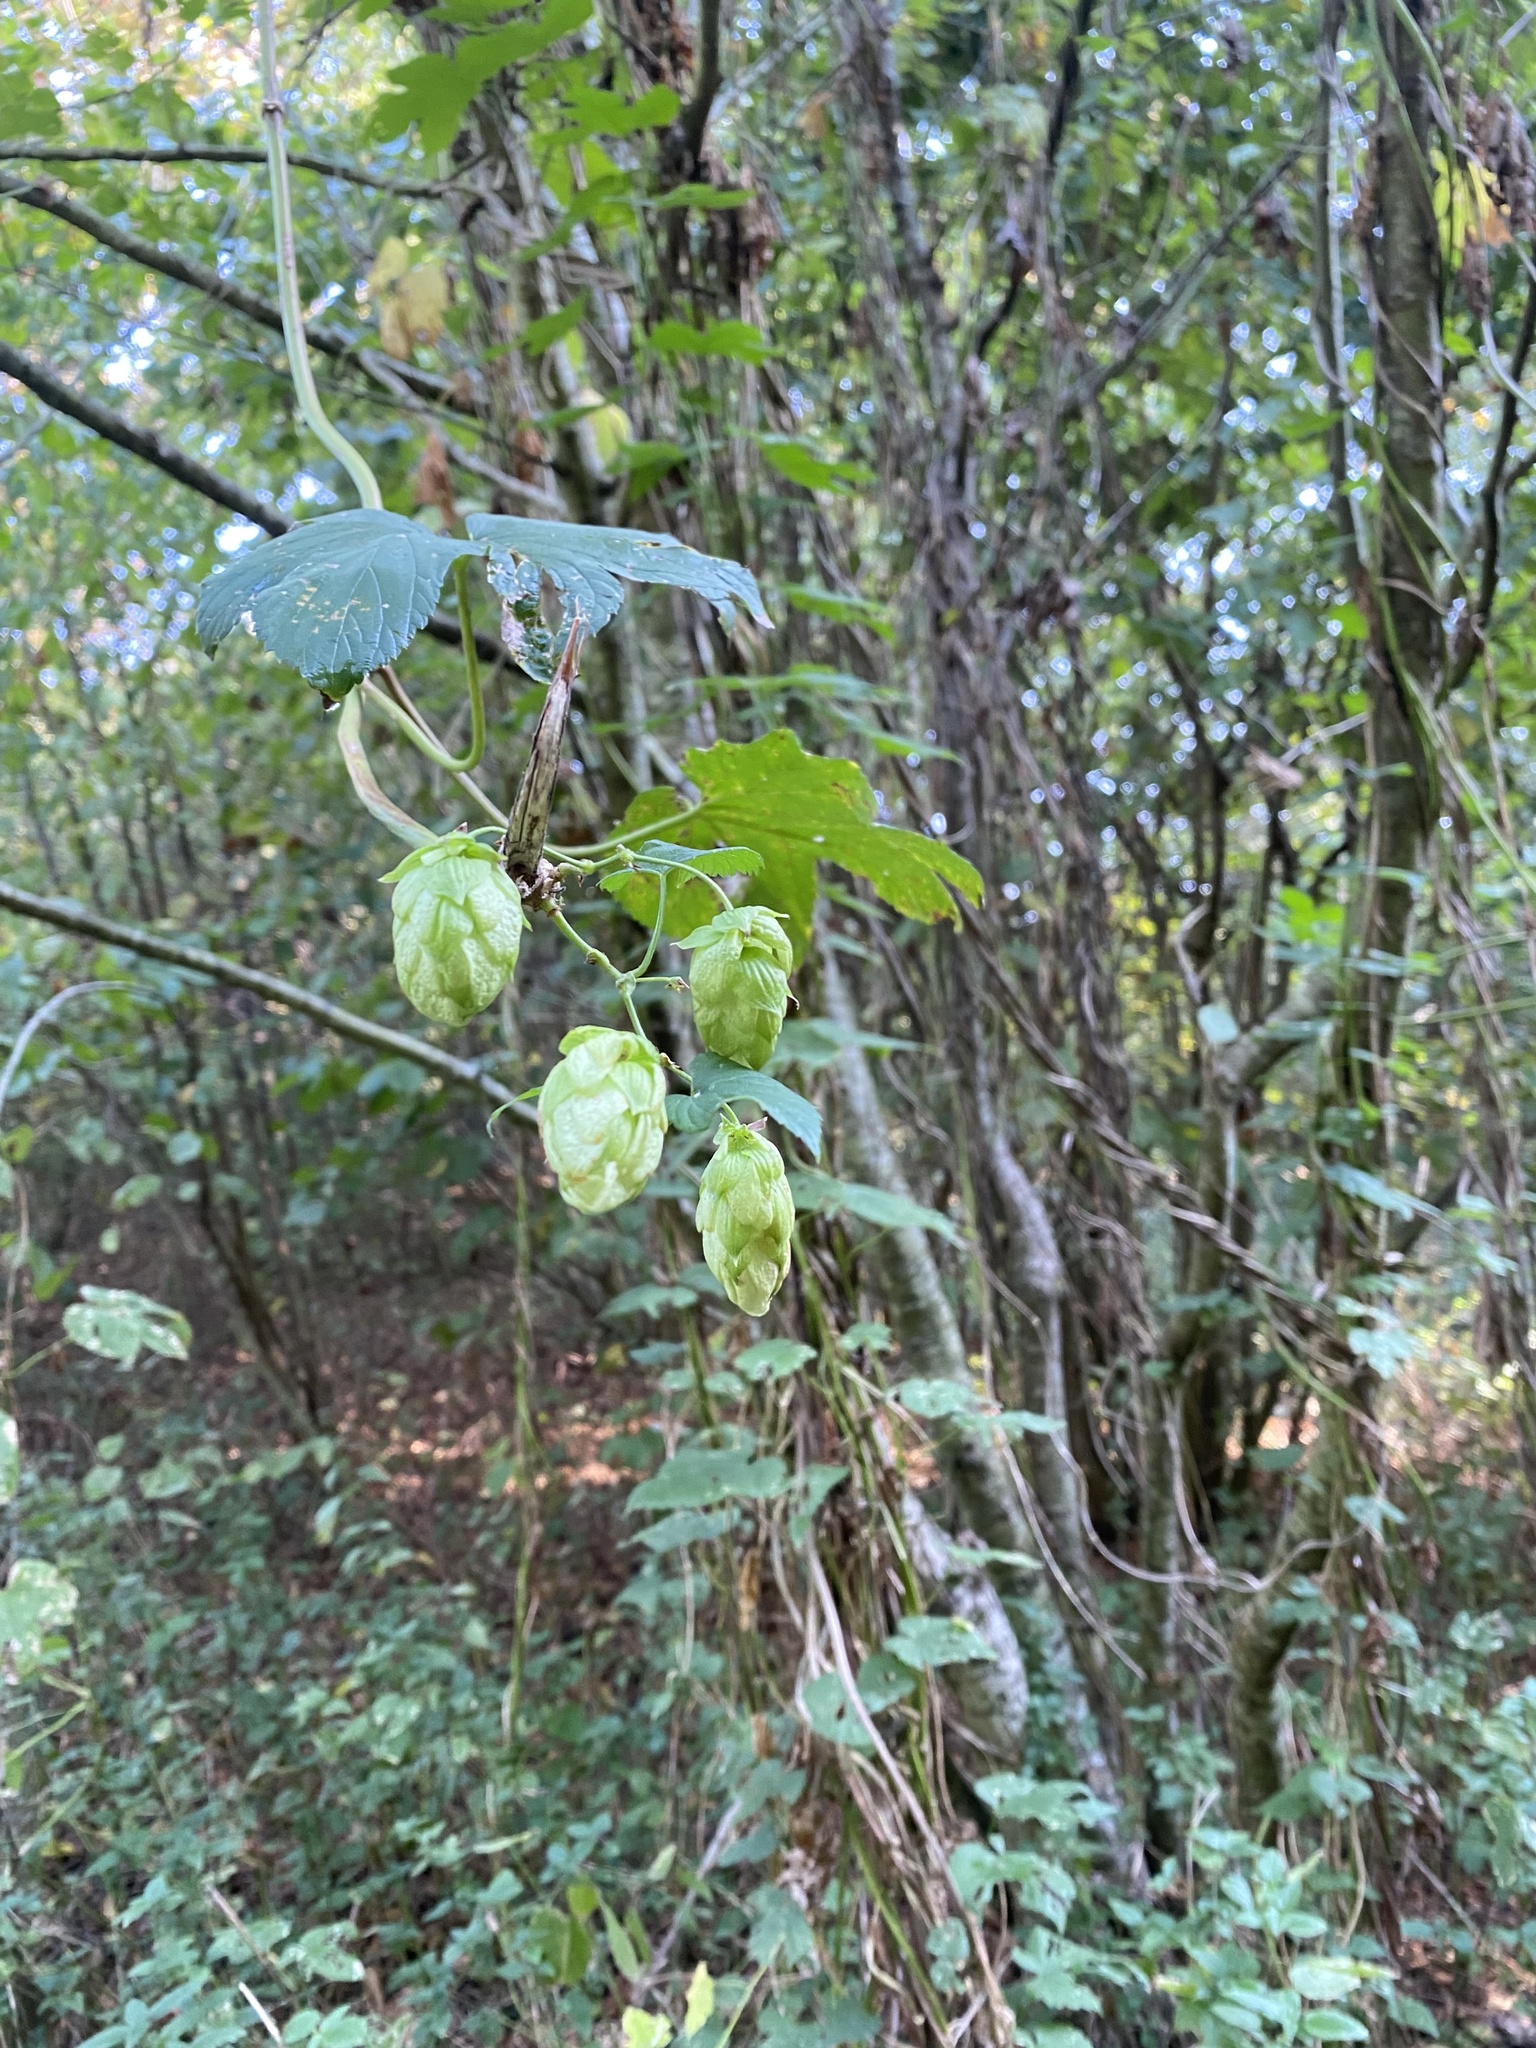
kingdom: Plantae
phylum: Tracheophyta
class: Magnoliopsida
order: Rosales
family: Cannabaceae
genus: Humulus
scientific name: Humulus lupulus
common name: Hop
